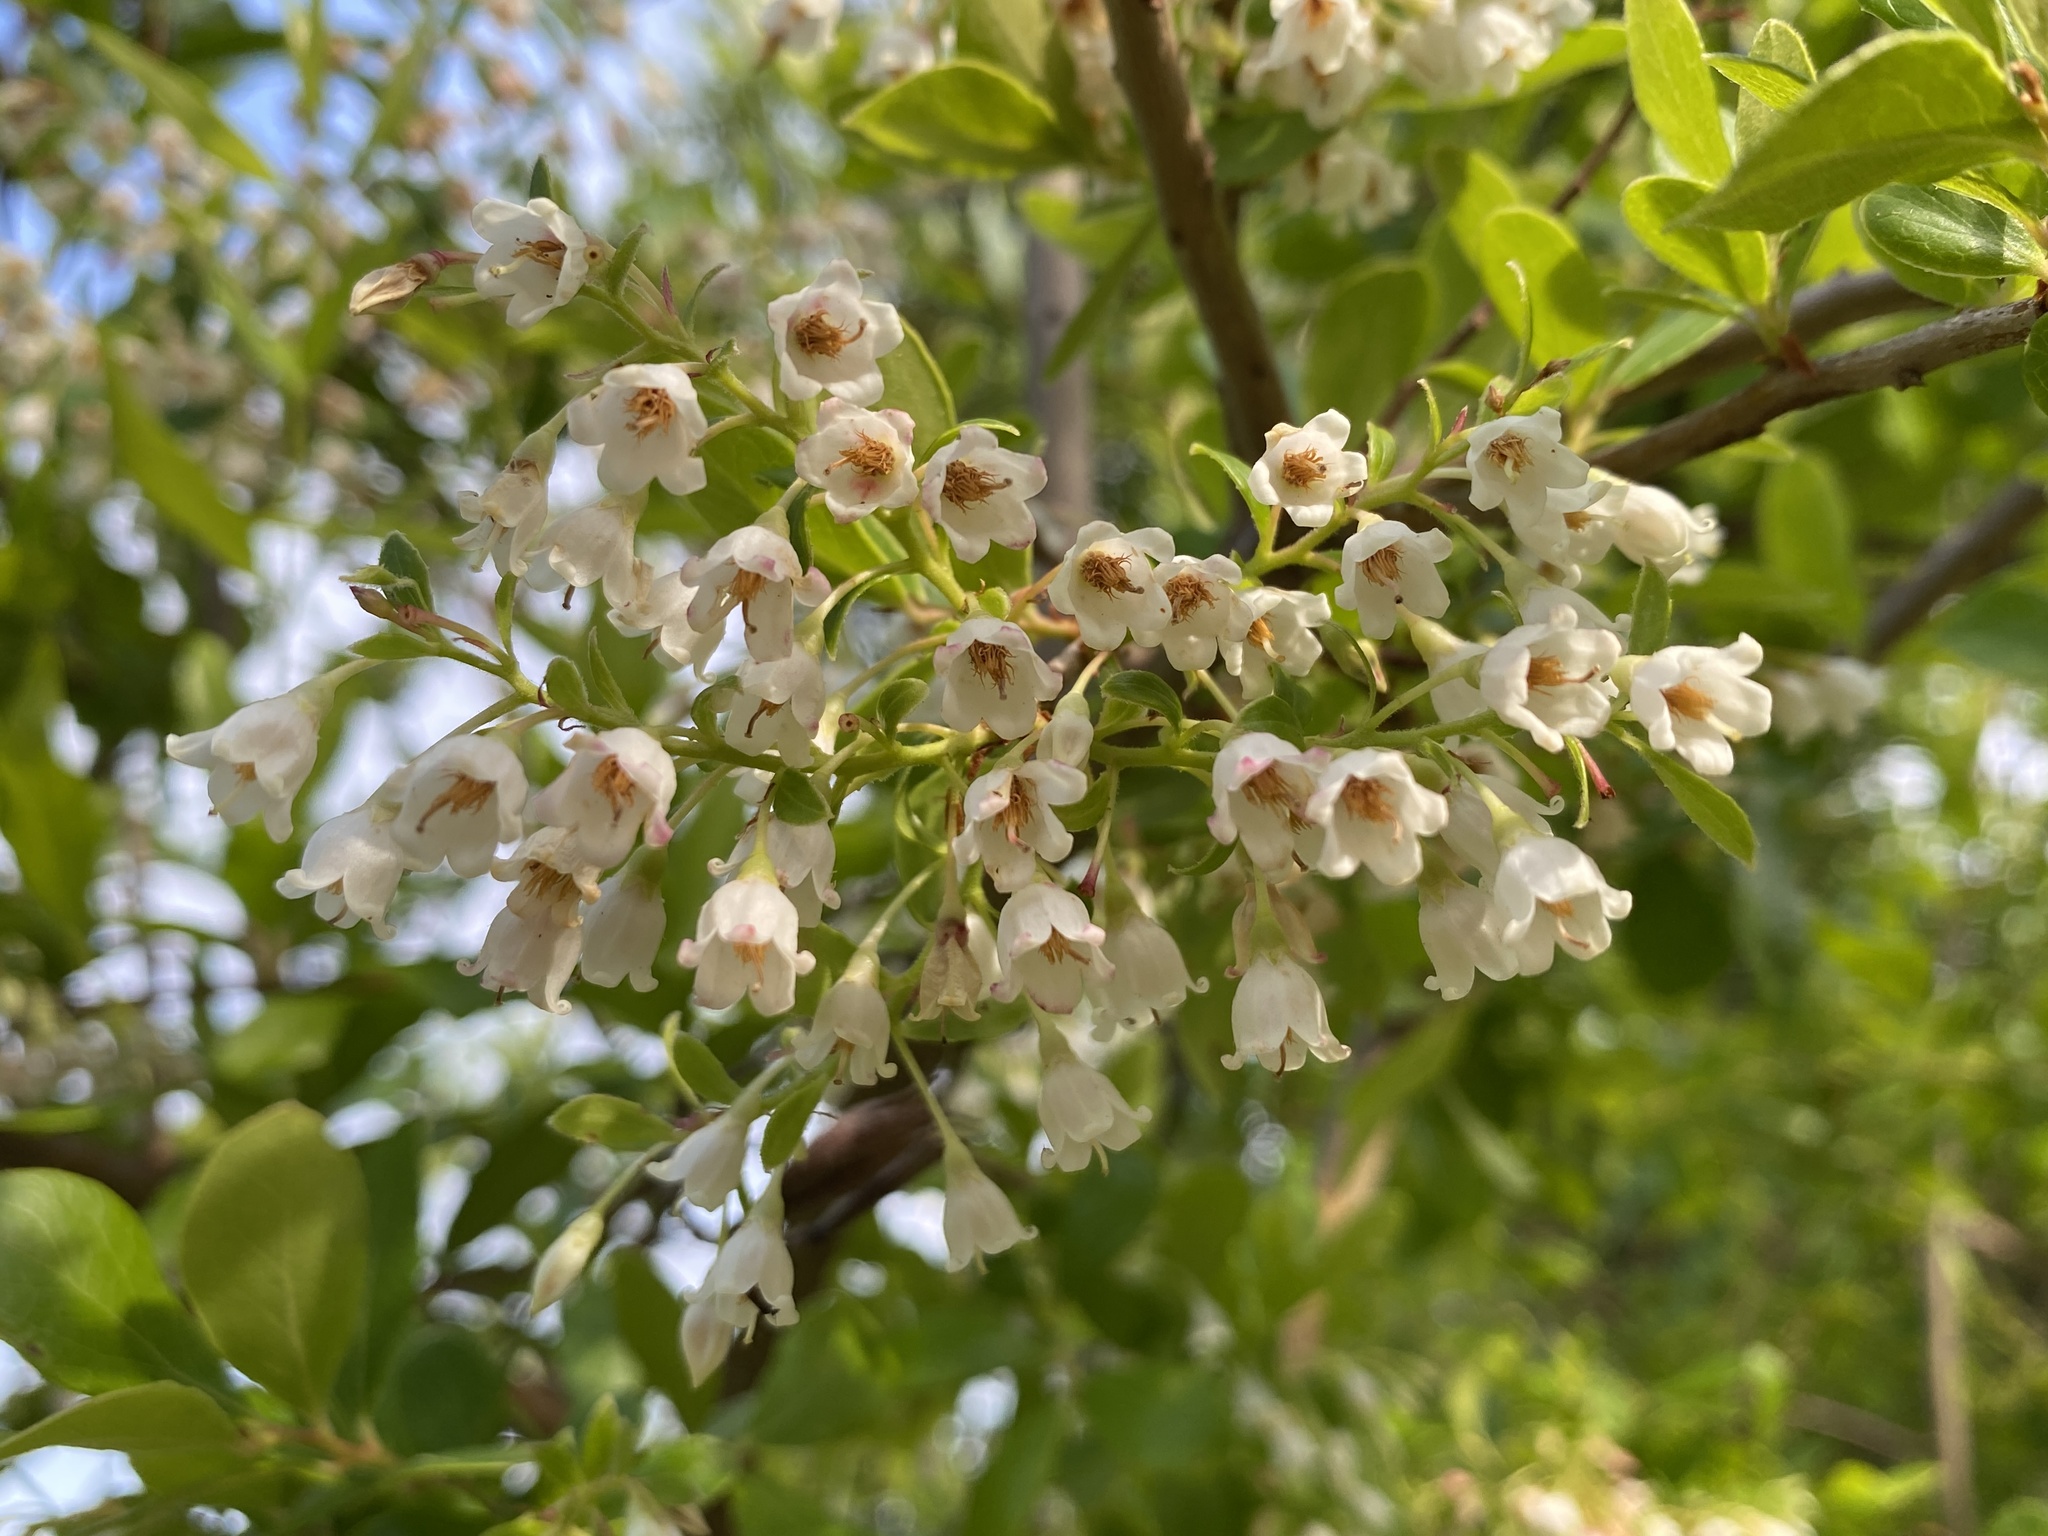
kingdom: Plantae
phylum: Tracheophyta
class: Magnoliopsida
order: Ericales
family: Ericaceae
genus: Vaccinium
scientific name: Vaccinium arboreum
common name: Farkleberry
